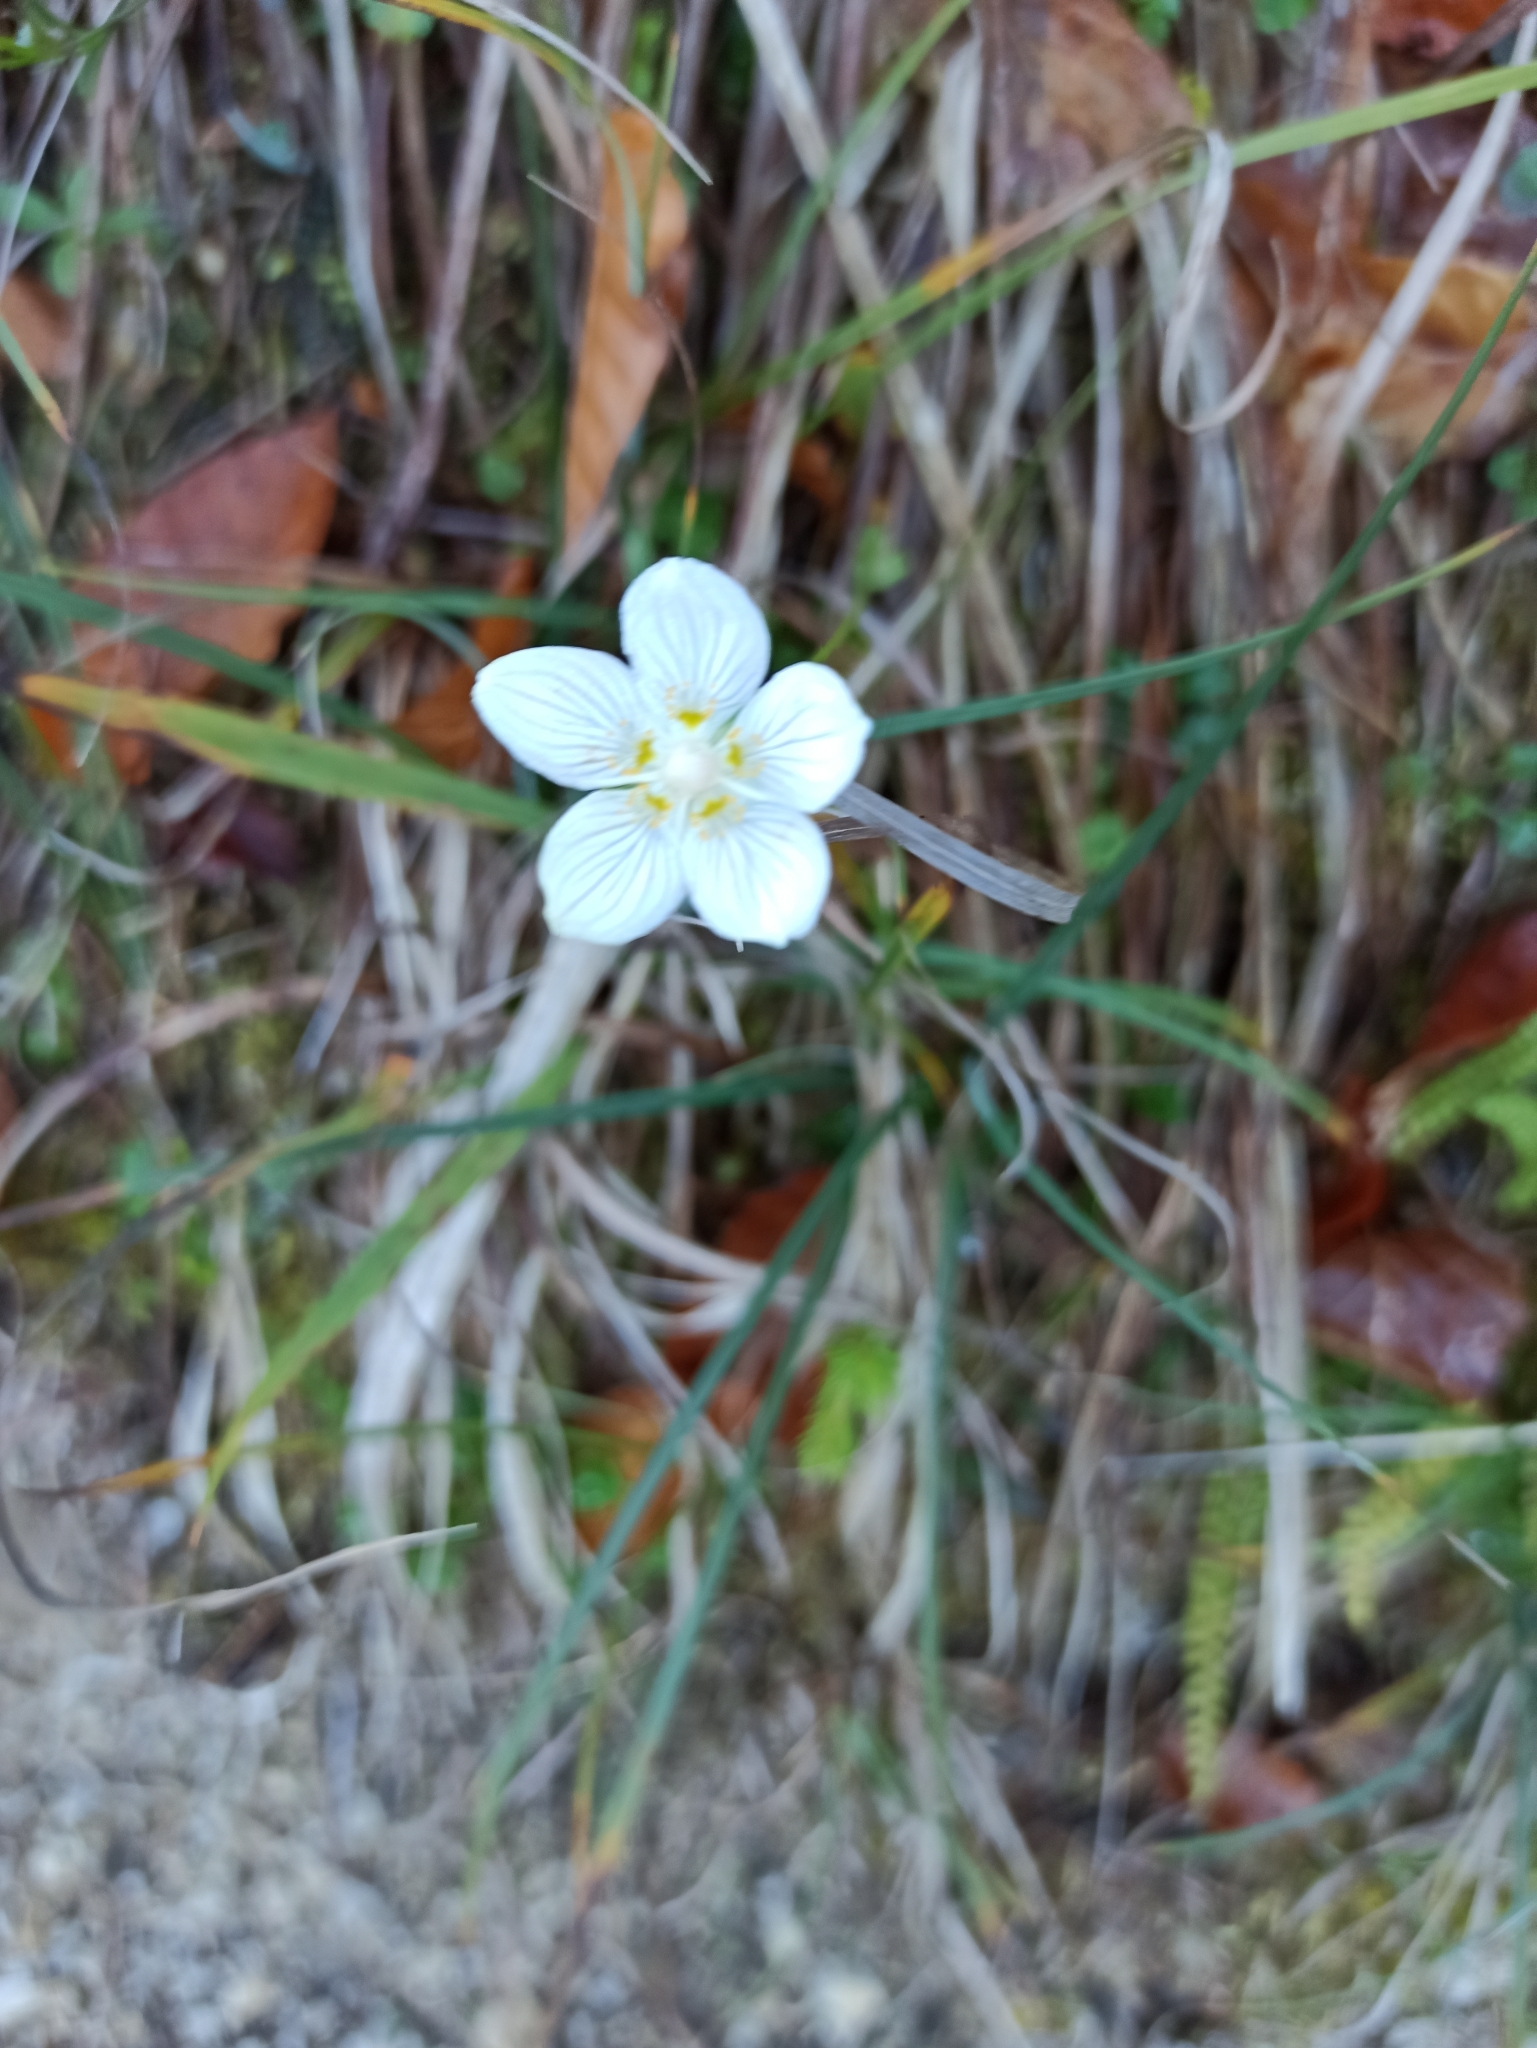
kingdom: Plantae
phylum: Tracheophyta
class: Magnoliopsida
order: Celastrales
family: Parnassiaceae
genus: Parnassia
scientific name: Parnassia palustris
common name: Grass-of-parnassus
